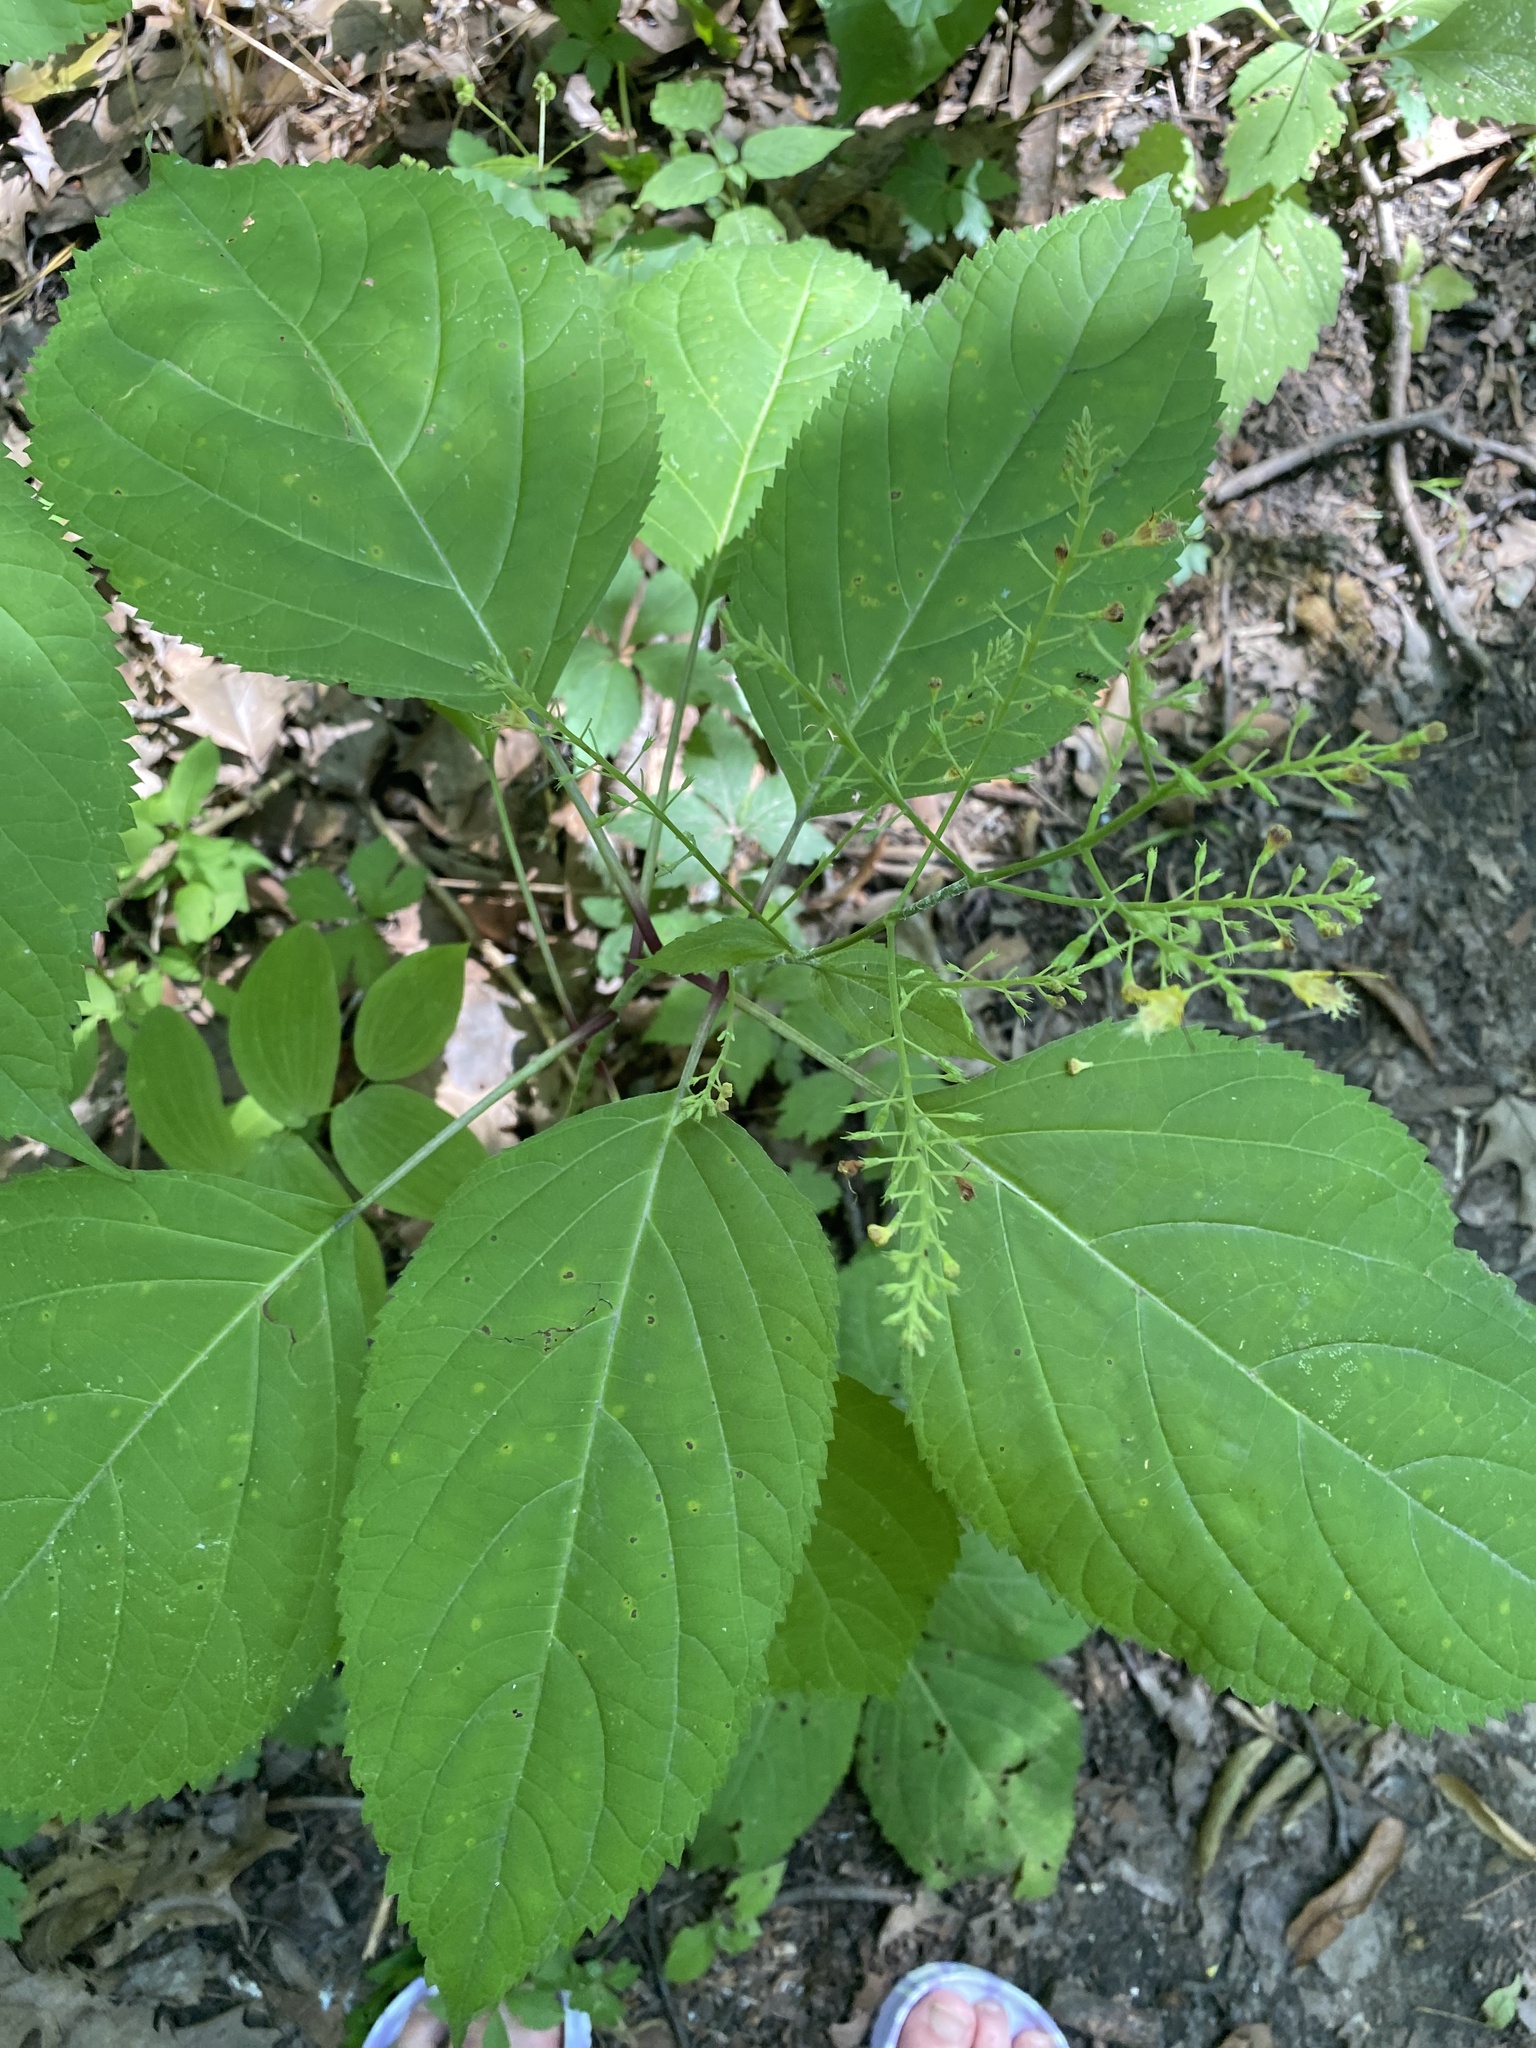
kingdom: Plantae
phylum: Tracheophyta
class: Magnoliopsida
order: Lamiales
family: Lamiaceae
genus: Collinsonia
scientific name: Collinsonia canadensis
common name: Northern horsebalm
